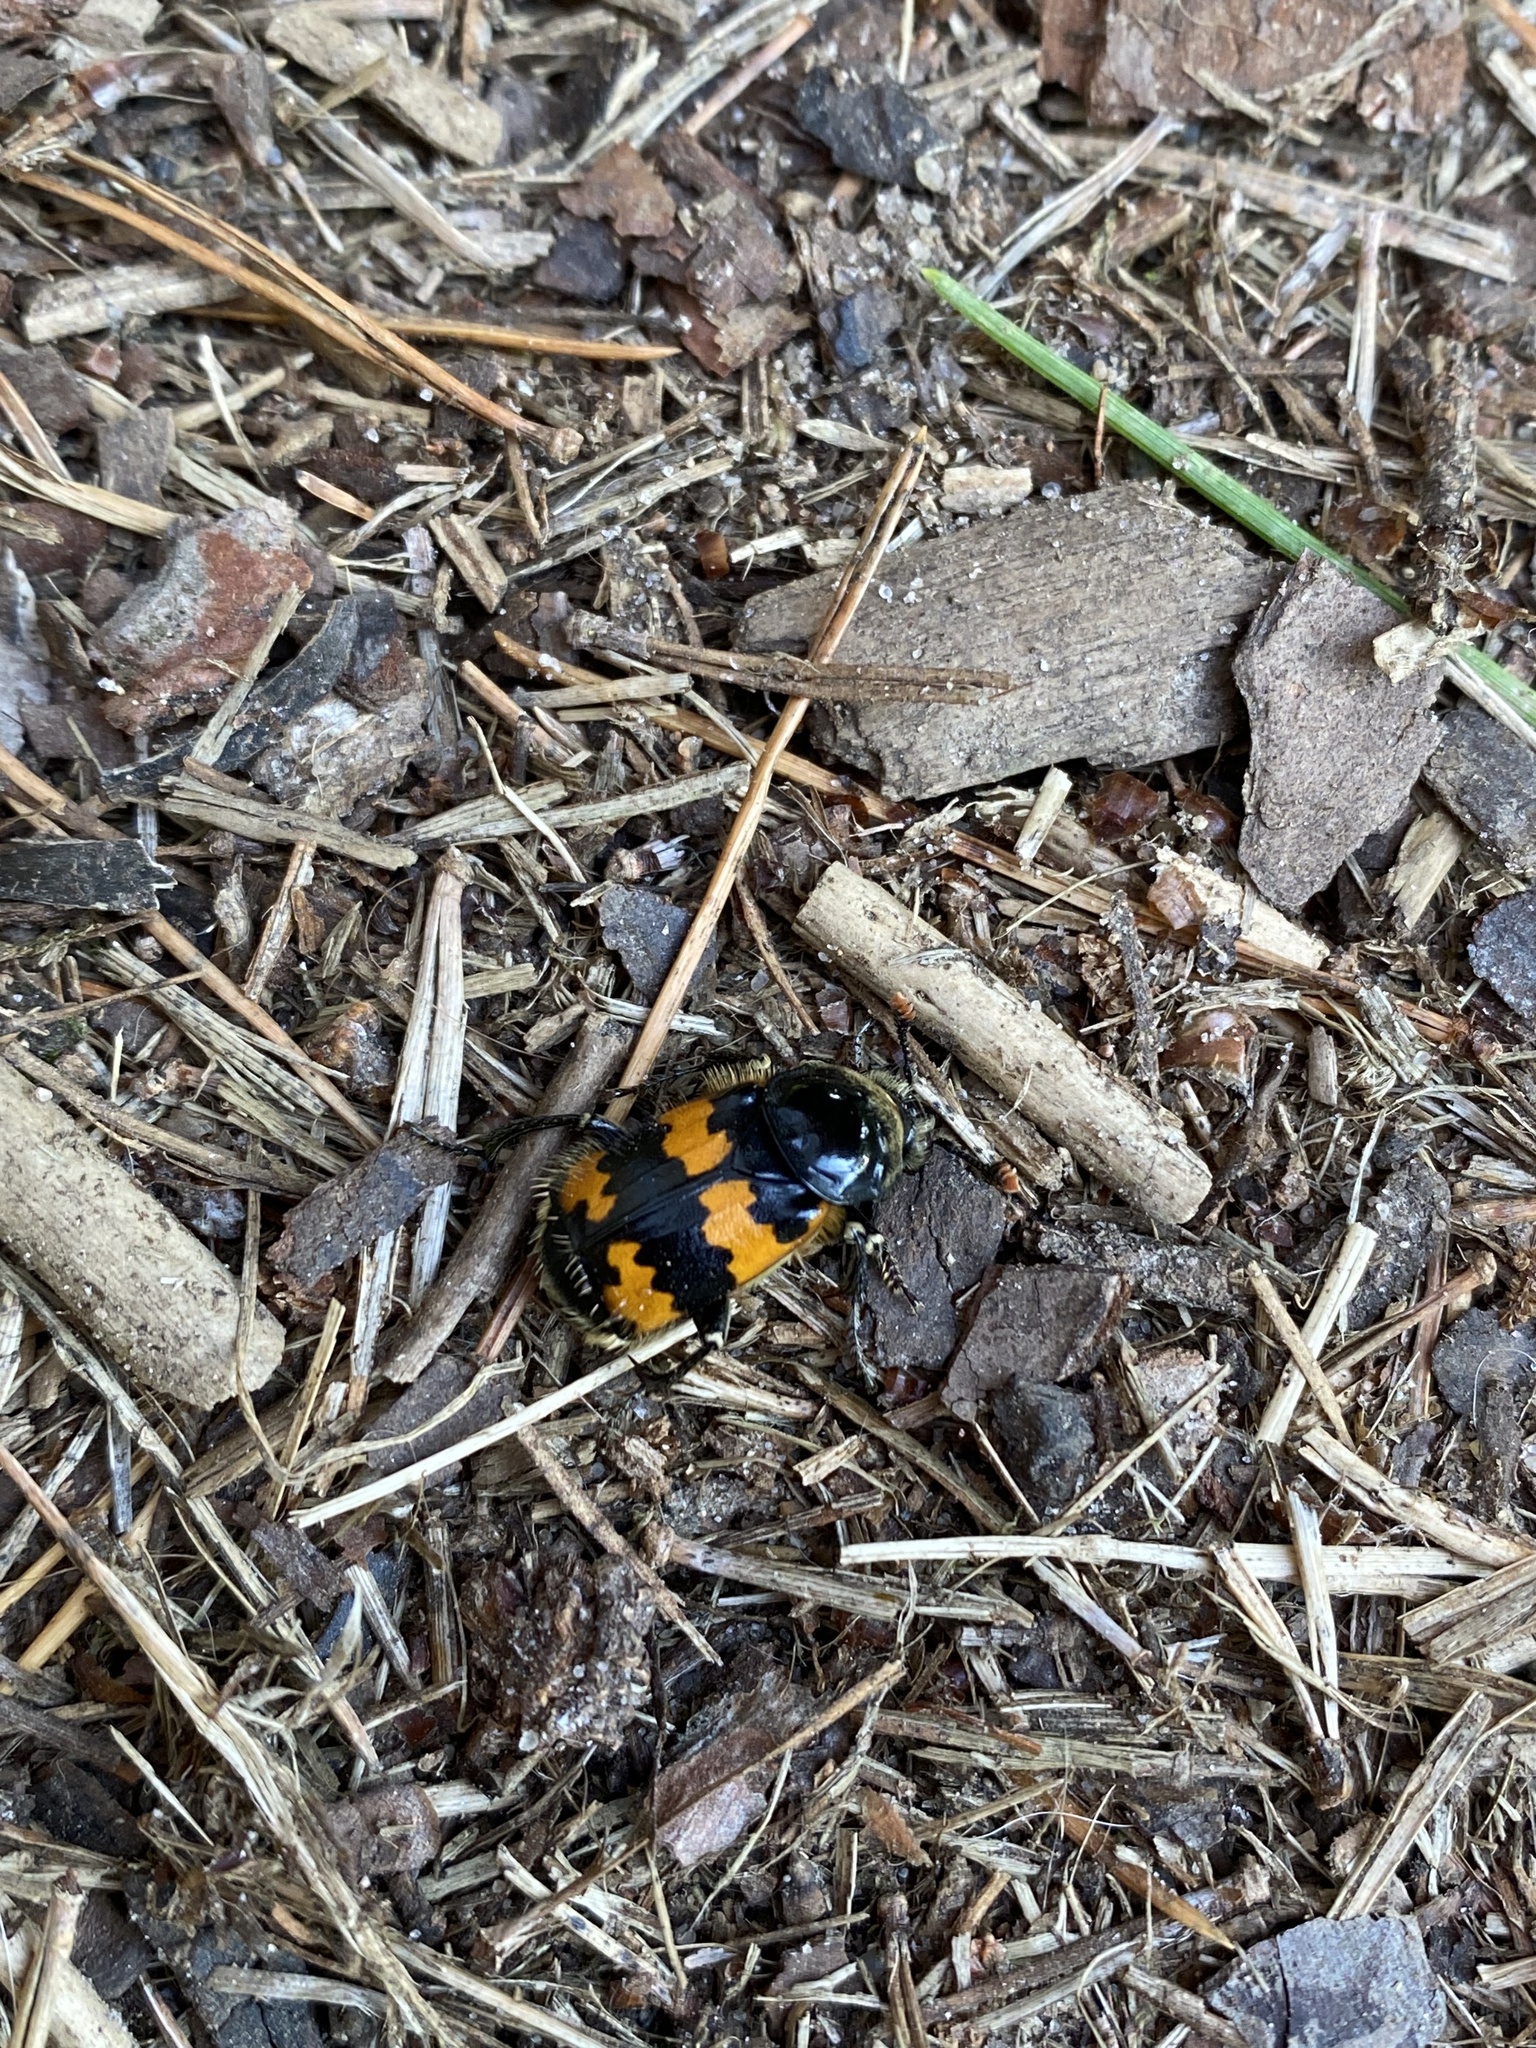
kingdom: Animalia
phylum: Arthropoda
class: Insecta
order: Coleoptera
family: Staphylinidae
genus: Nicrophorus
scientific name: Nicrophorus vespillo
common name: Common burying beetle
